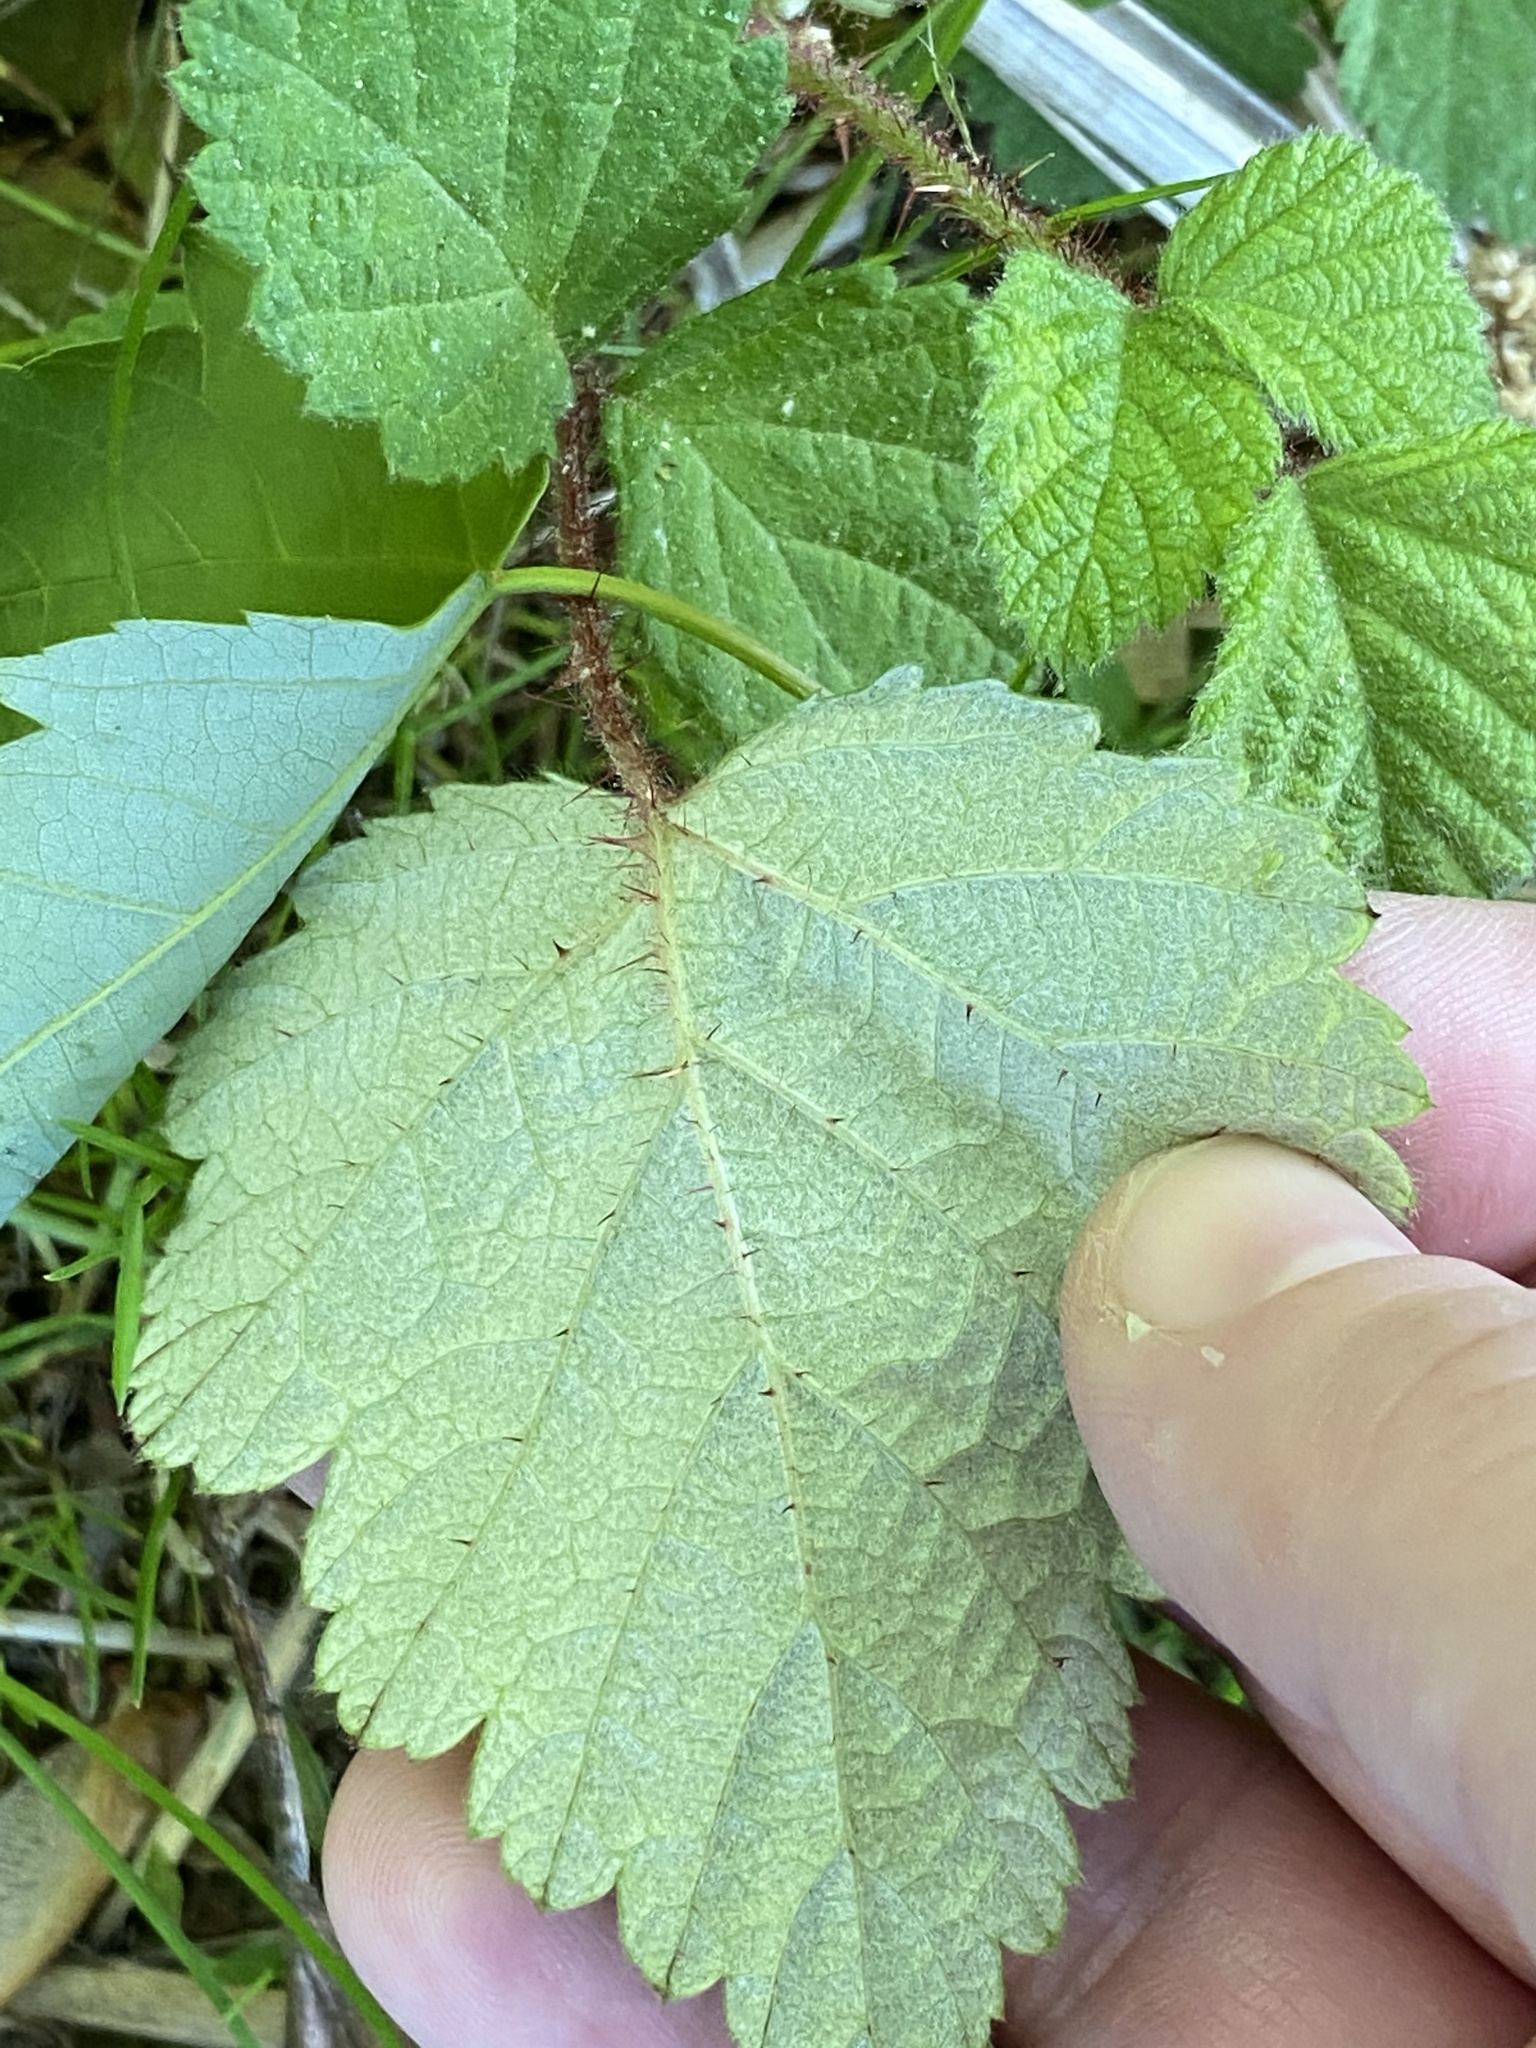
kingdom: Plantae
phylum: Tracheophyta
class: Magnoliopsida
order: Rosales
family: Rosaceae
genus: Rubus
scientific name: Rubus phoenicolasius
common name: Japanese wineberry
